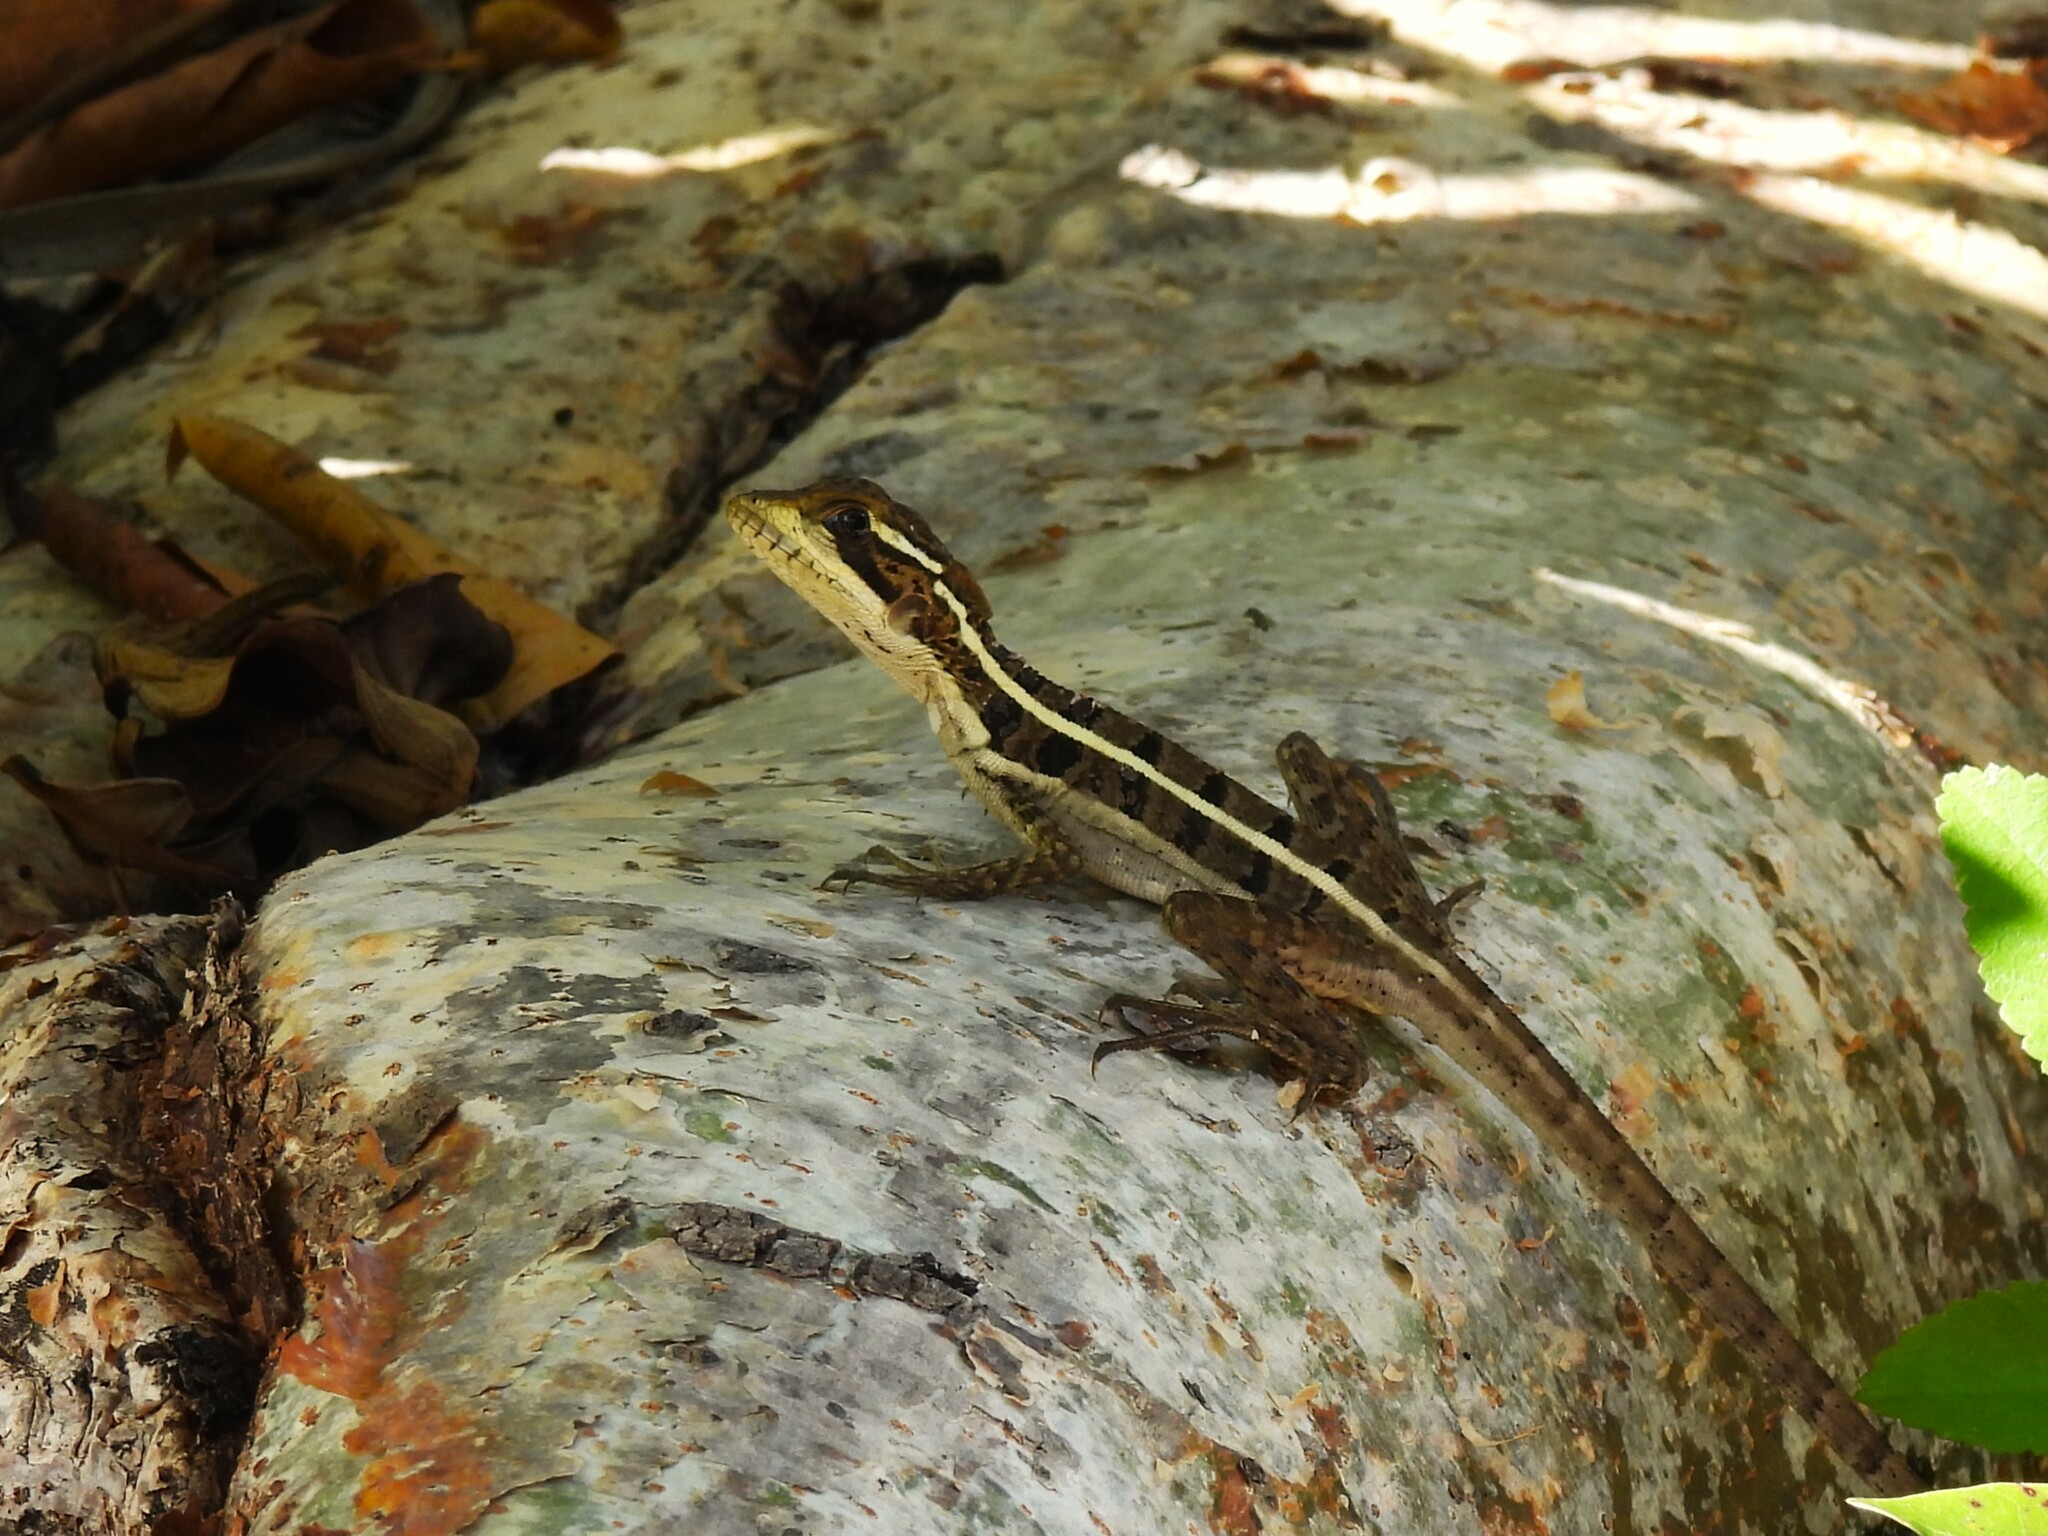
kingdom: Animalia
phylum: Chordata
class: Squamata
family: Corytophanidae
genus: Basiliscus
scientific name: Basiliscus vittatus
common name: Brown basilisk
